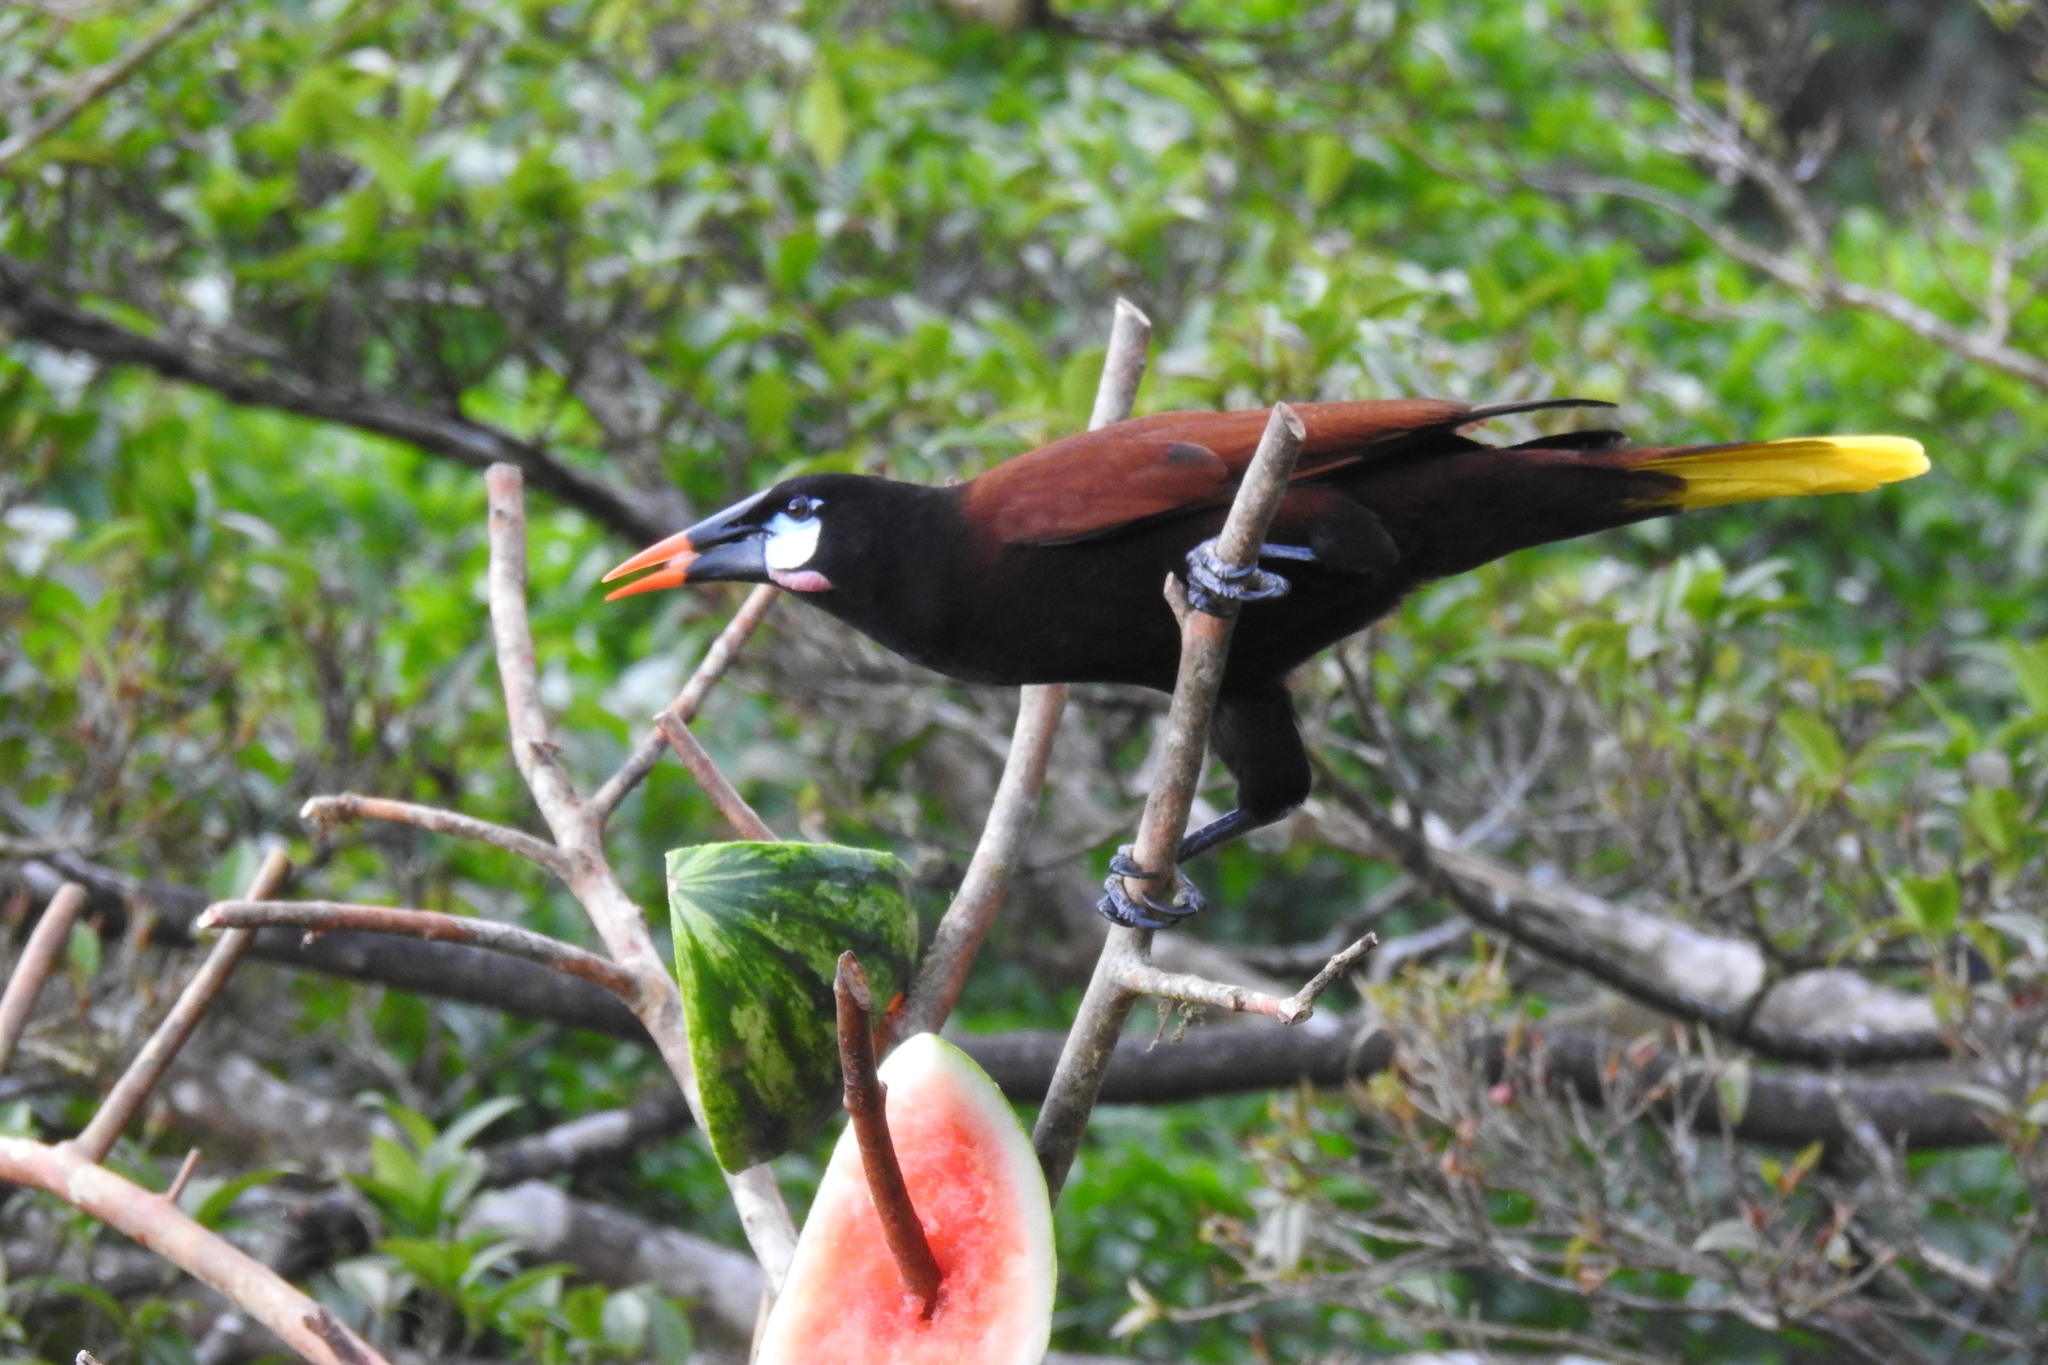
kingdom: Animalia
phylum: Chordata
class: Aves
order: Passeriformes
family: Icteridae
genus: Psarocolius
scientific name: Psarocolius montezuma
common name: Montezuma oropendola
